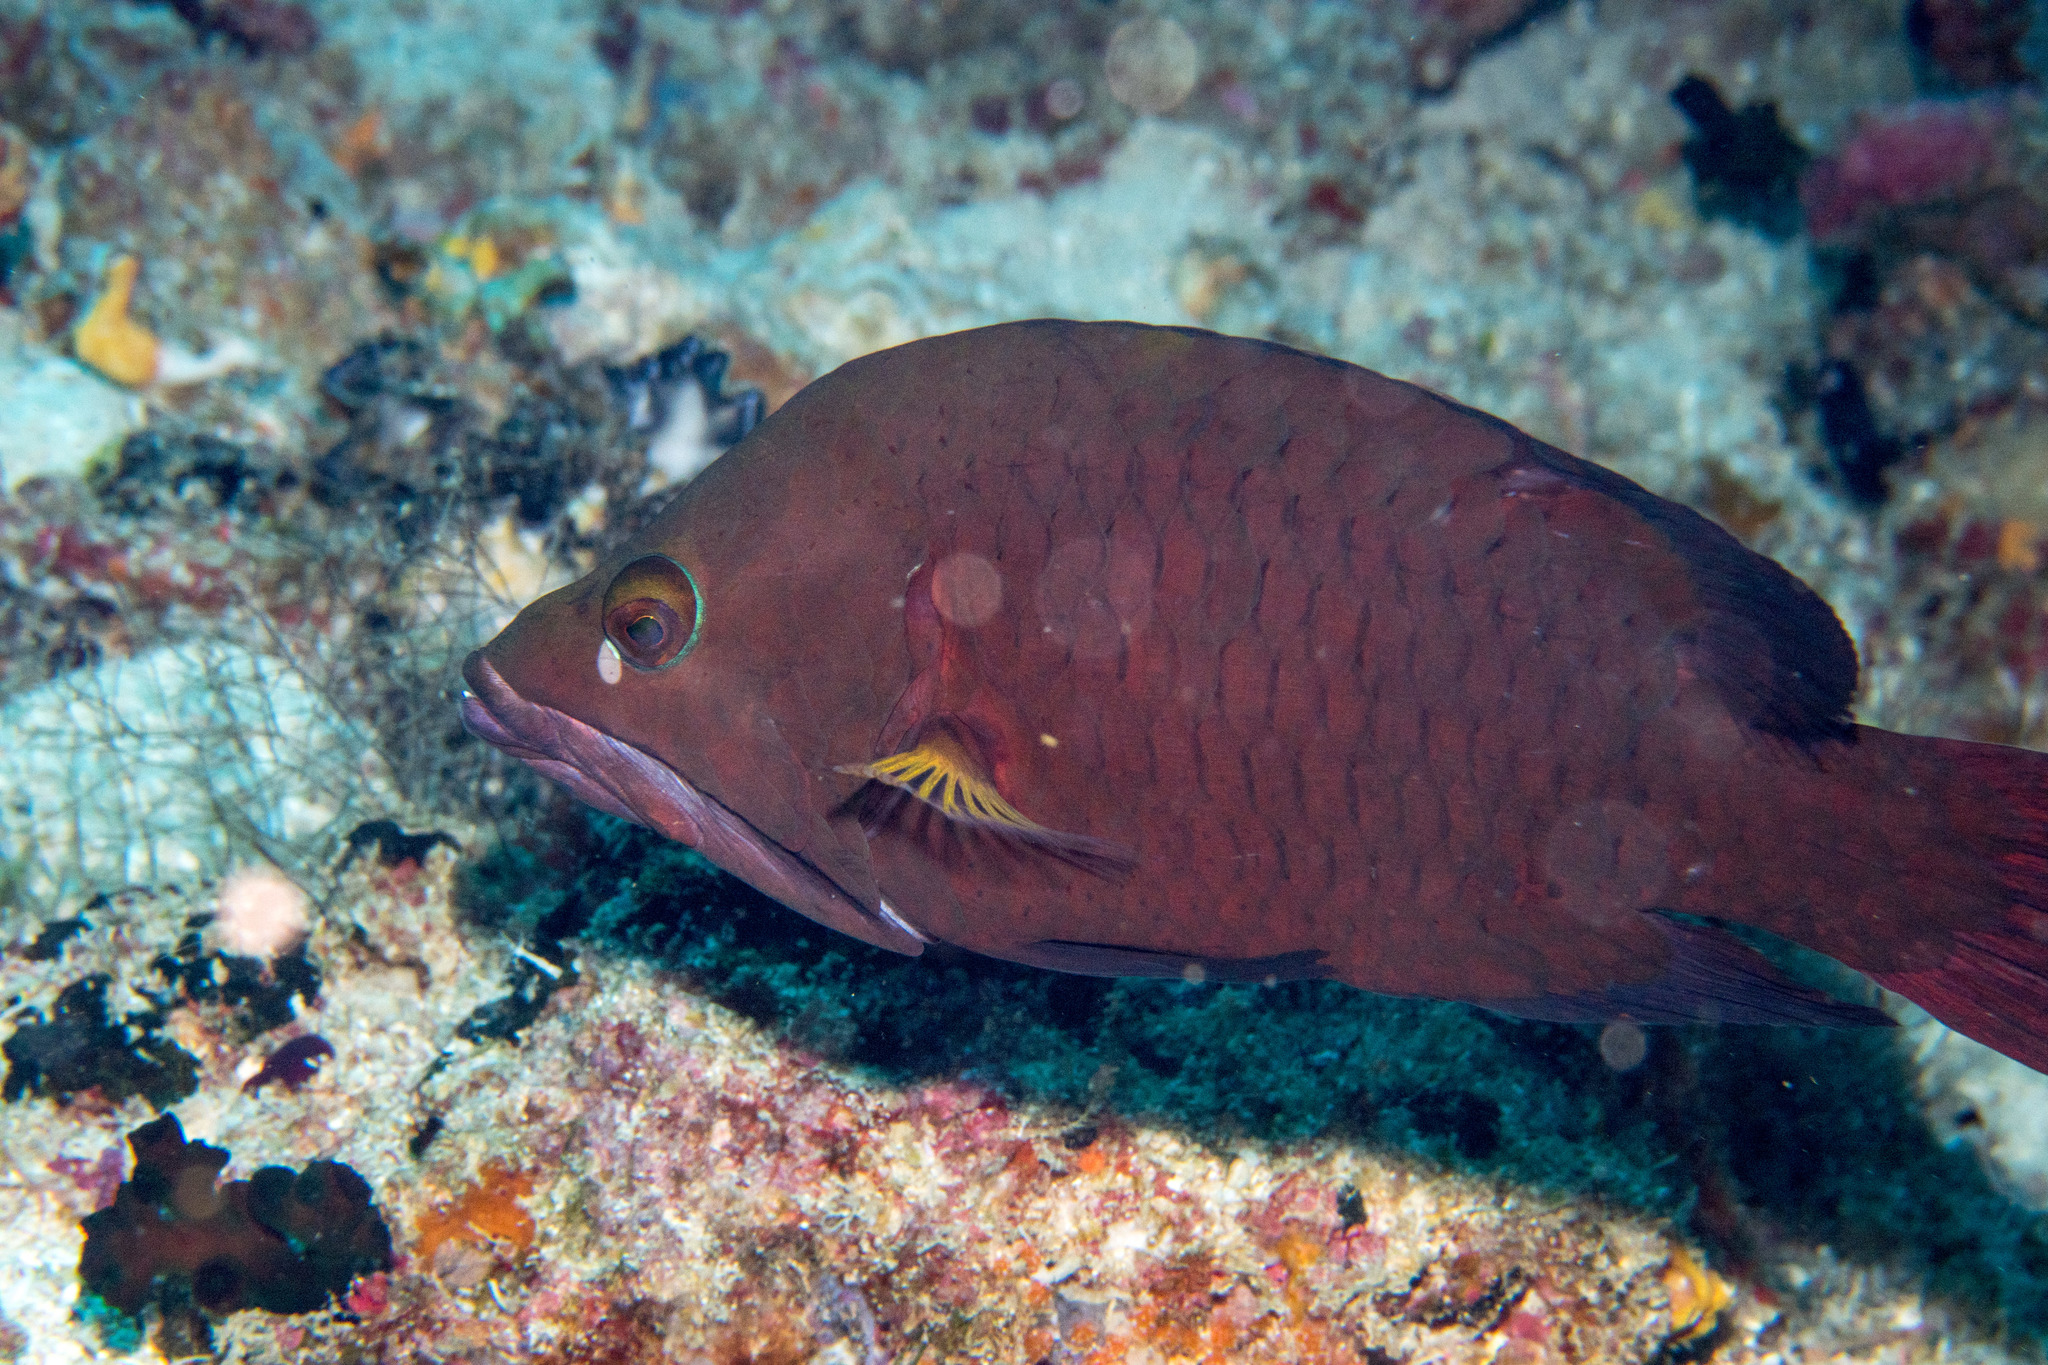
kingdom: Animalia
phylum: Chordata
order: Perciformes
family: Labridae
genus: Epibulus
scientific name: Epibulus insidiator
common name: Slingjaw wrasse
